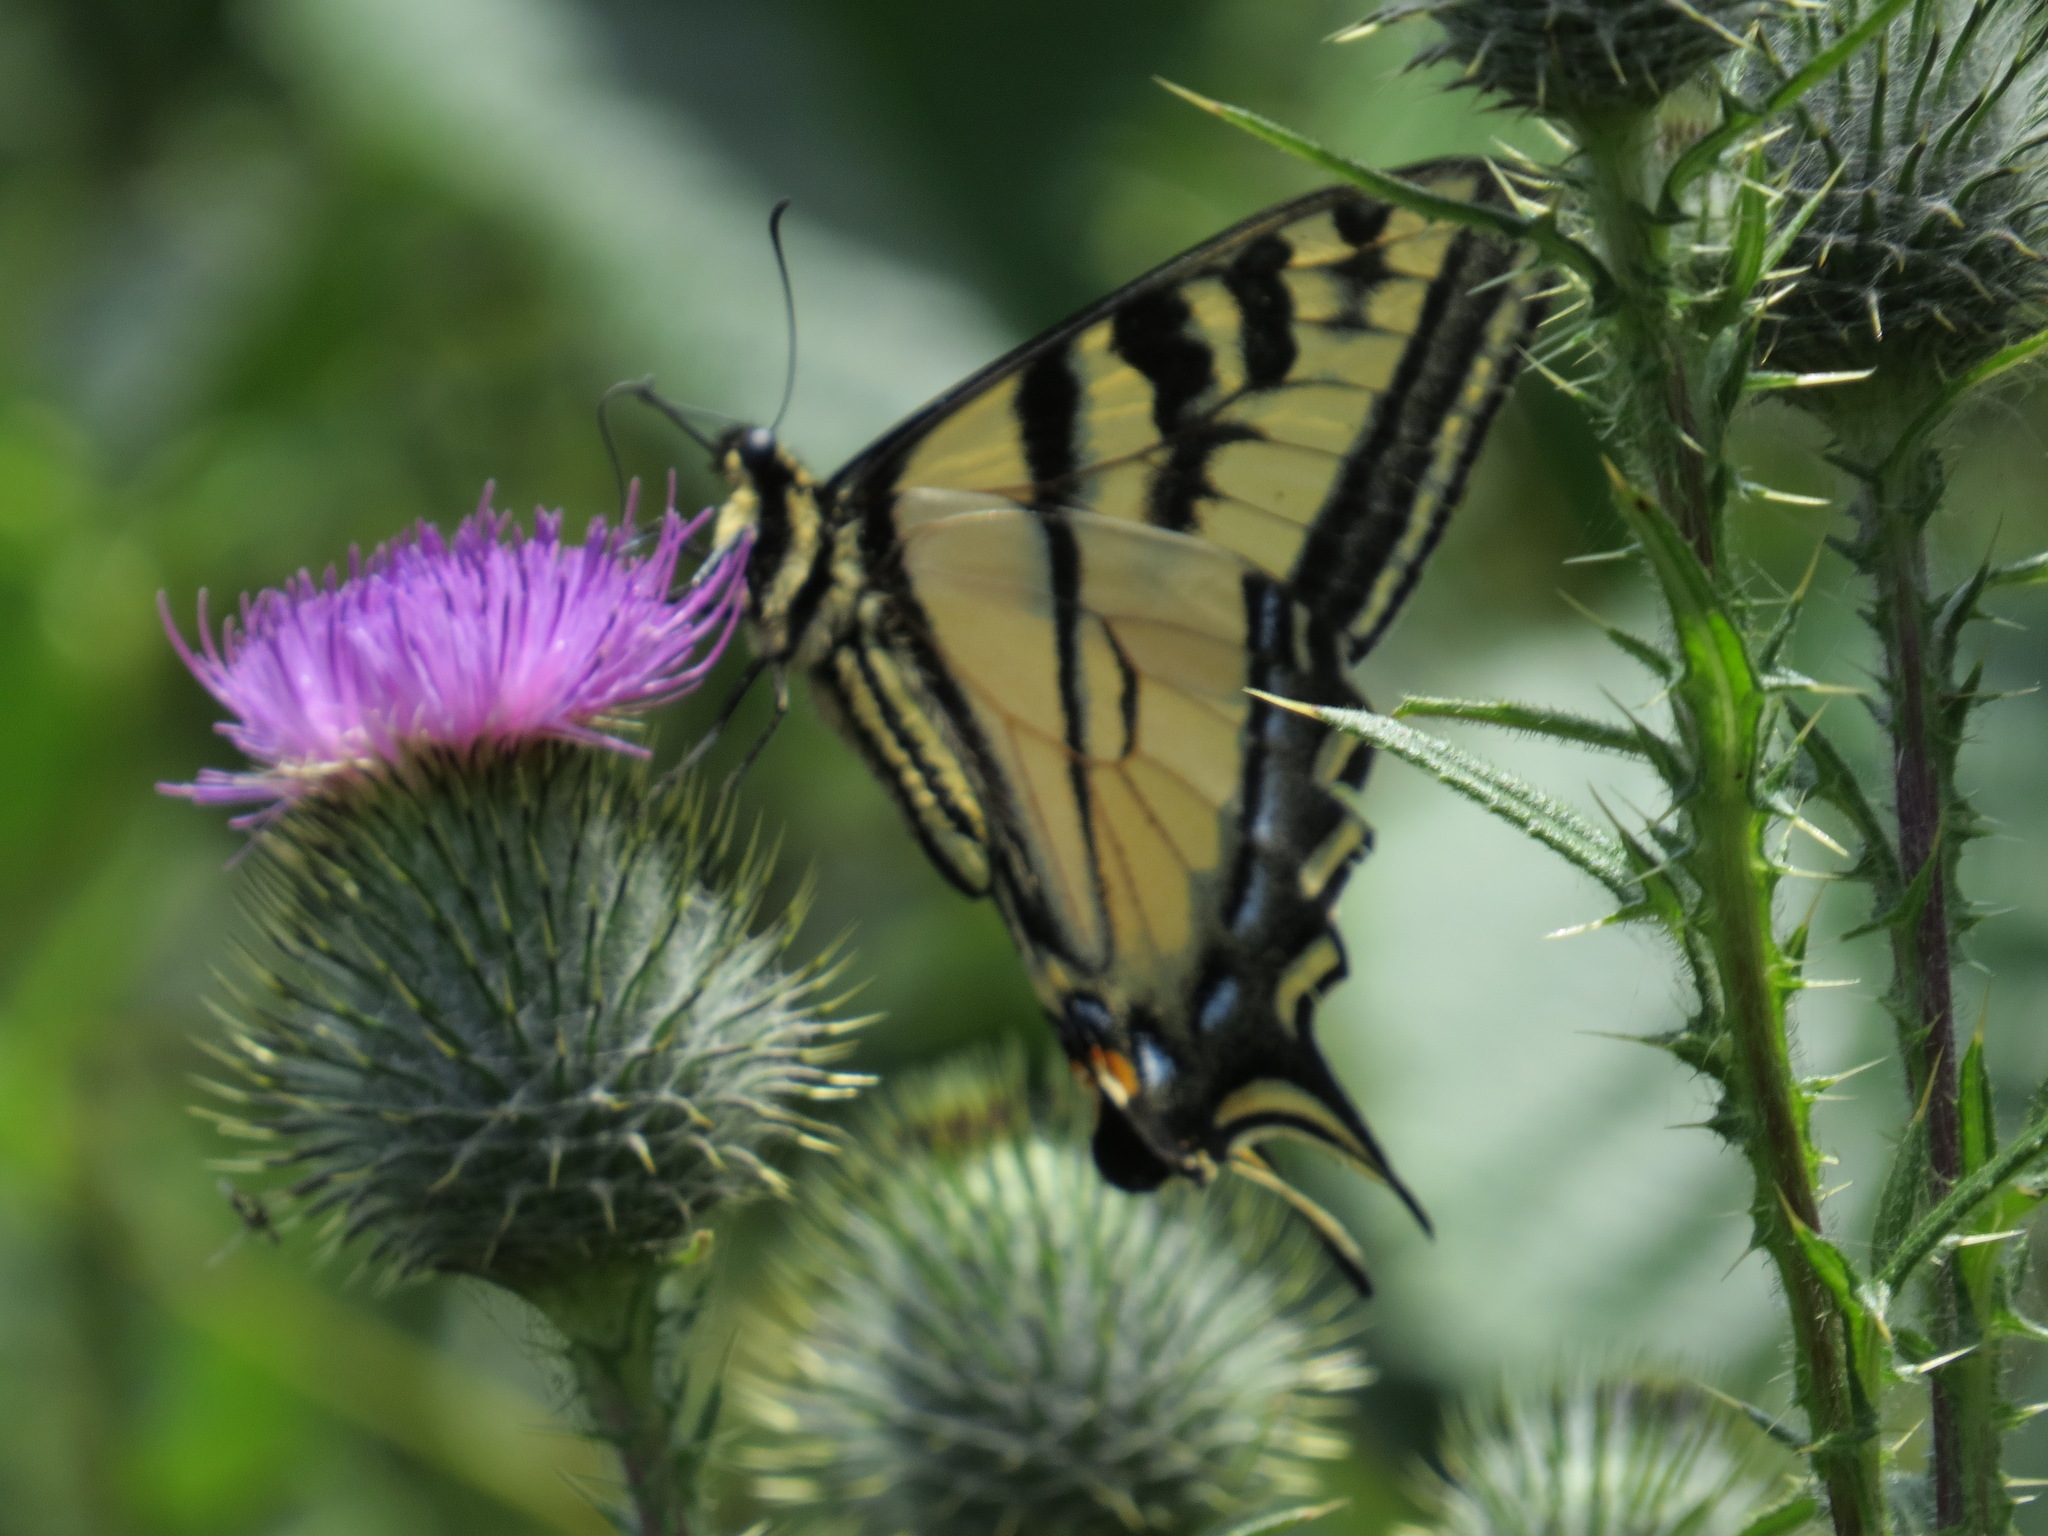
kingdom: Animalia
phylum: Arthropoda
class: Insecta
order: Lepidoptera
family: Papilionidae
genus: Papilio
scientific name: Papilio rutulus
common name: Western tiger swallowtail
